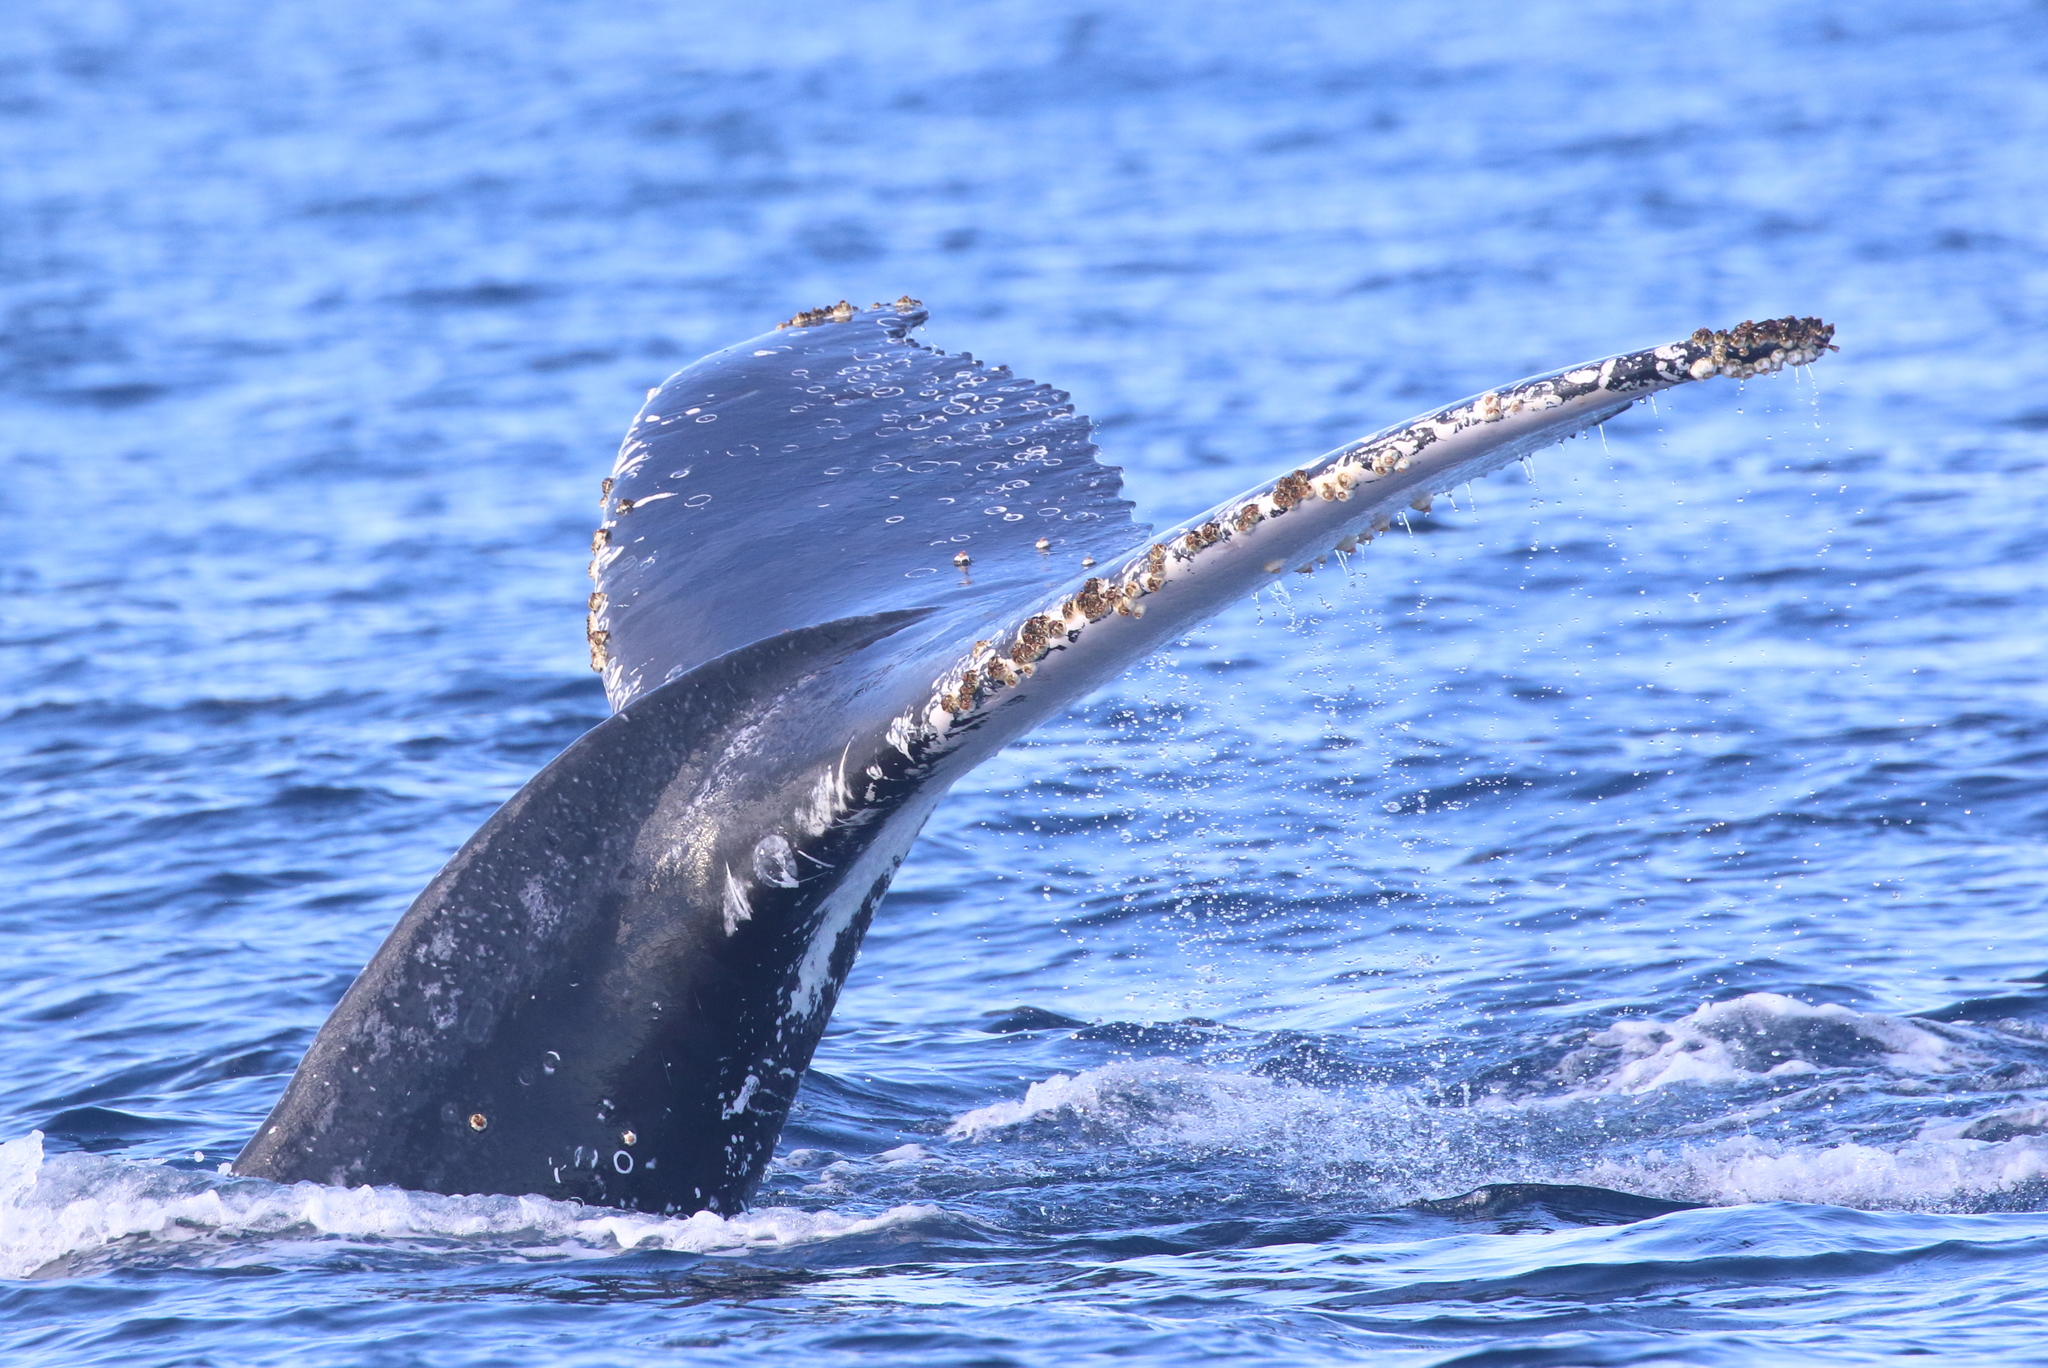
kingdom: Animalia
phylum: Chordata
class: Mammalia
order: Cetacea
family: Balaenopteridae
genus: Megaptera
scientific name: Megaptera novaeangliae
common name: Humpback whale
